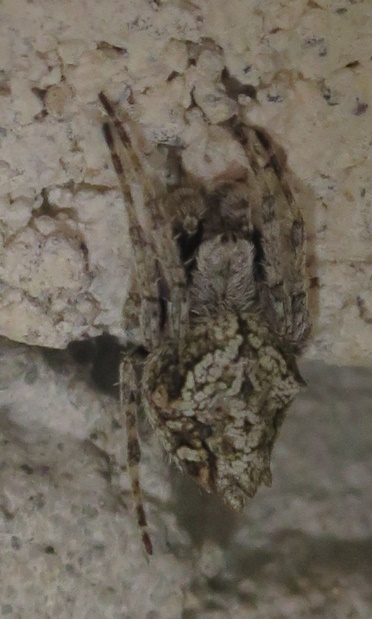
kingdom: Animalia
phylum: Arthropoda
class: Arachnida
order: Araneae
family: Araneidae
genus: Eriophora
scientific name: Eriophora pustulosa
